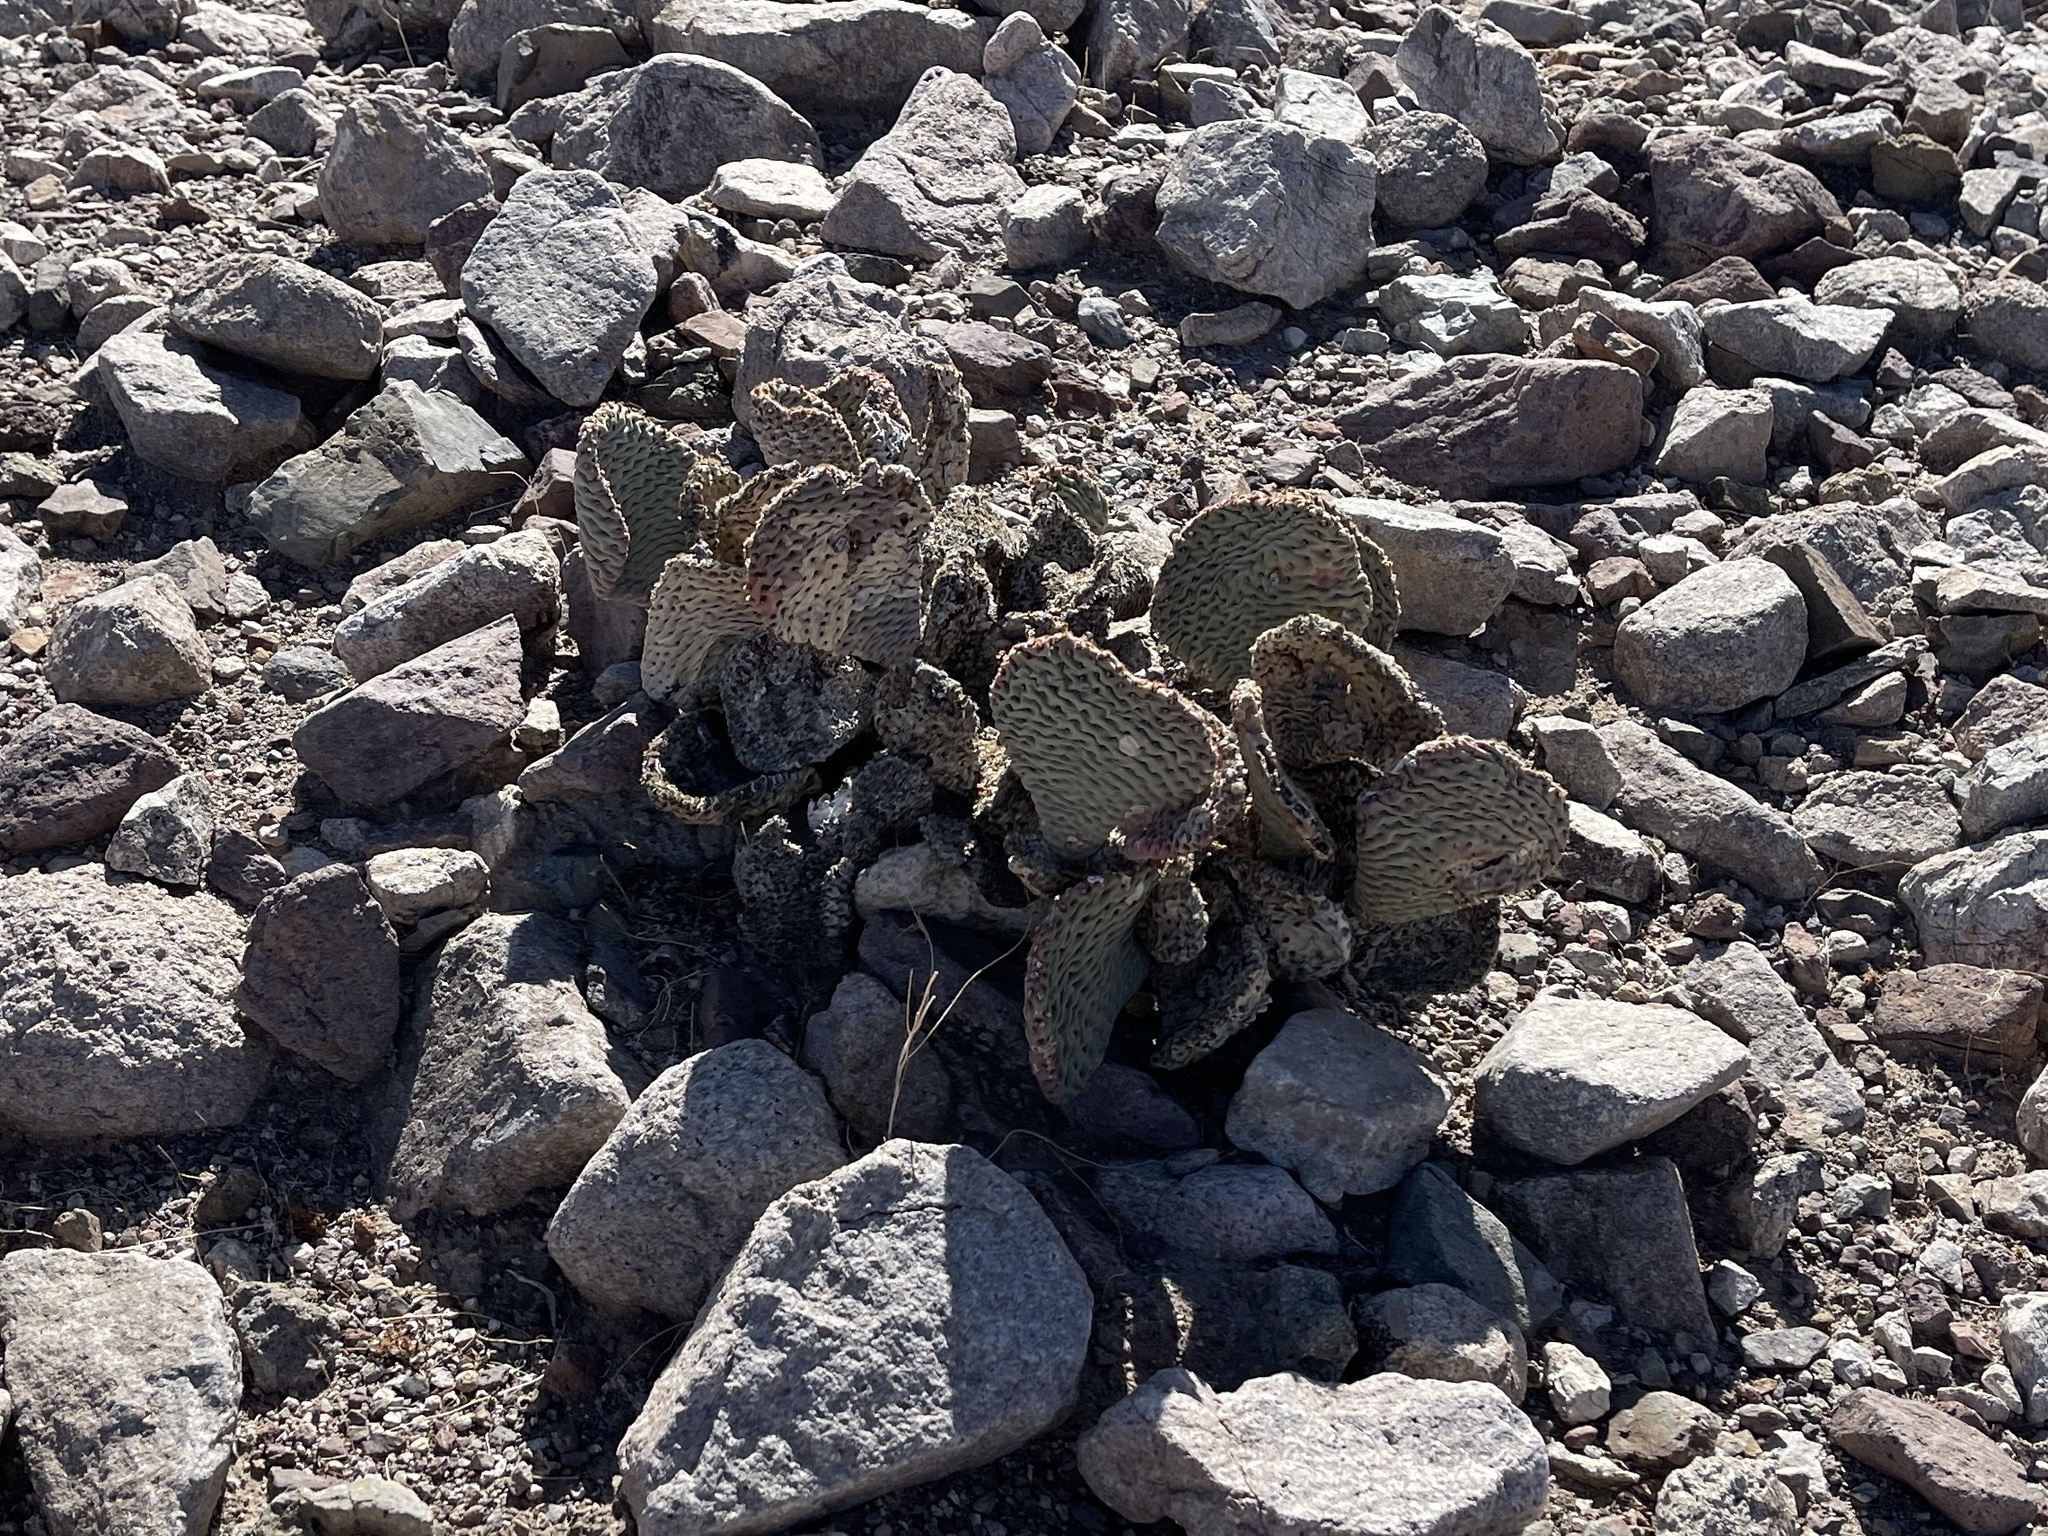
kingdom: Plantae
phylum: Tracheophyta
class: Magnoliopsida
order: Caryophyllales
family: Cactaceae
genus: Opuntia
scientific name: Opuntia basilaris
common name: Beavertail prickly-pear
